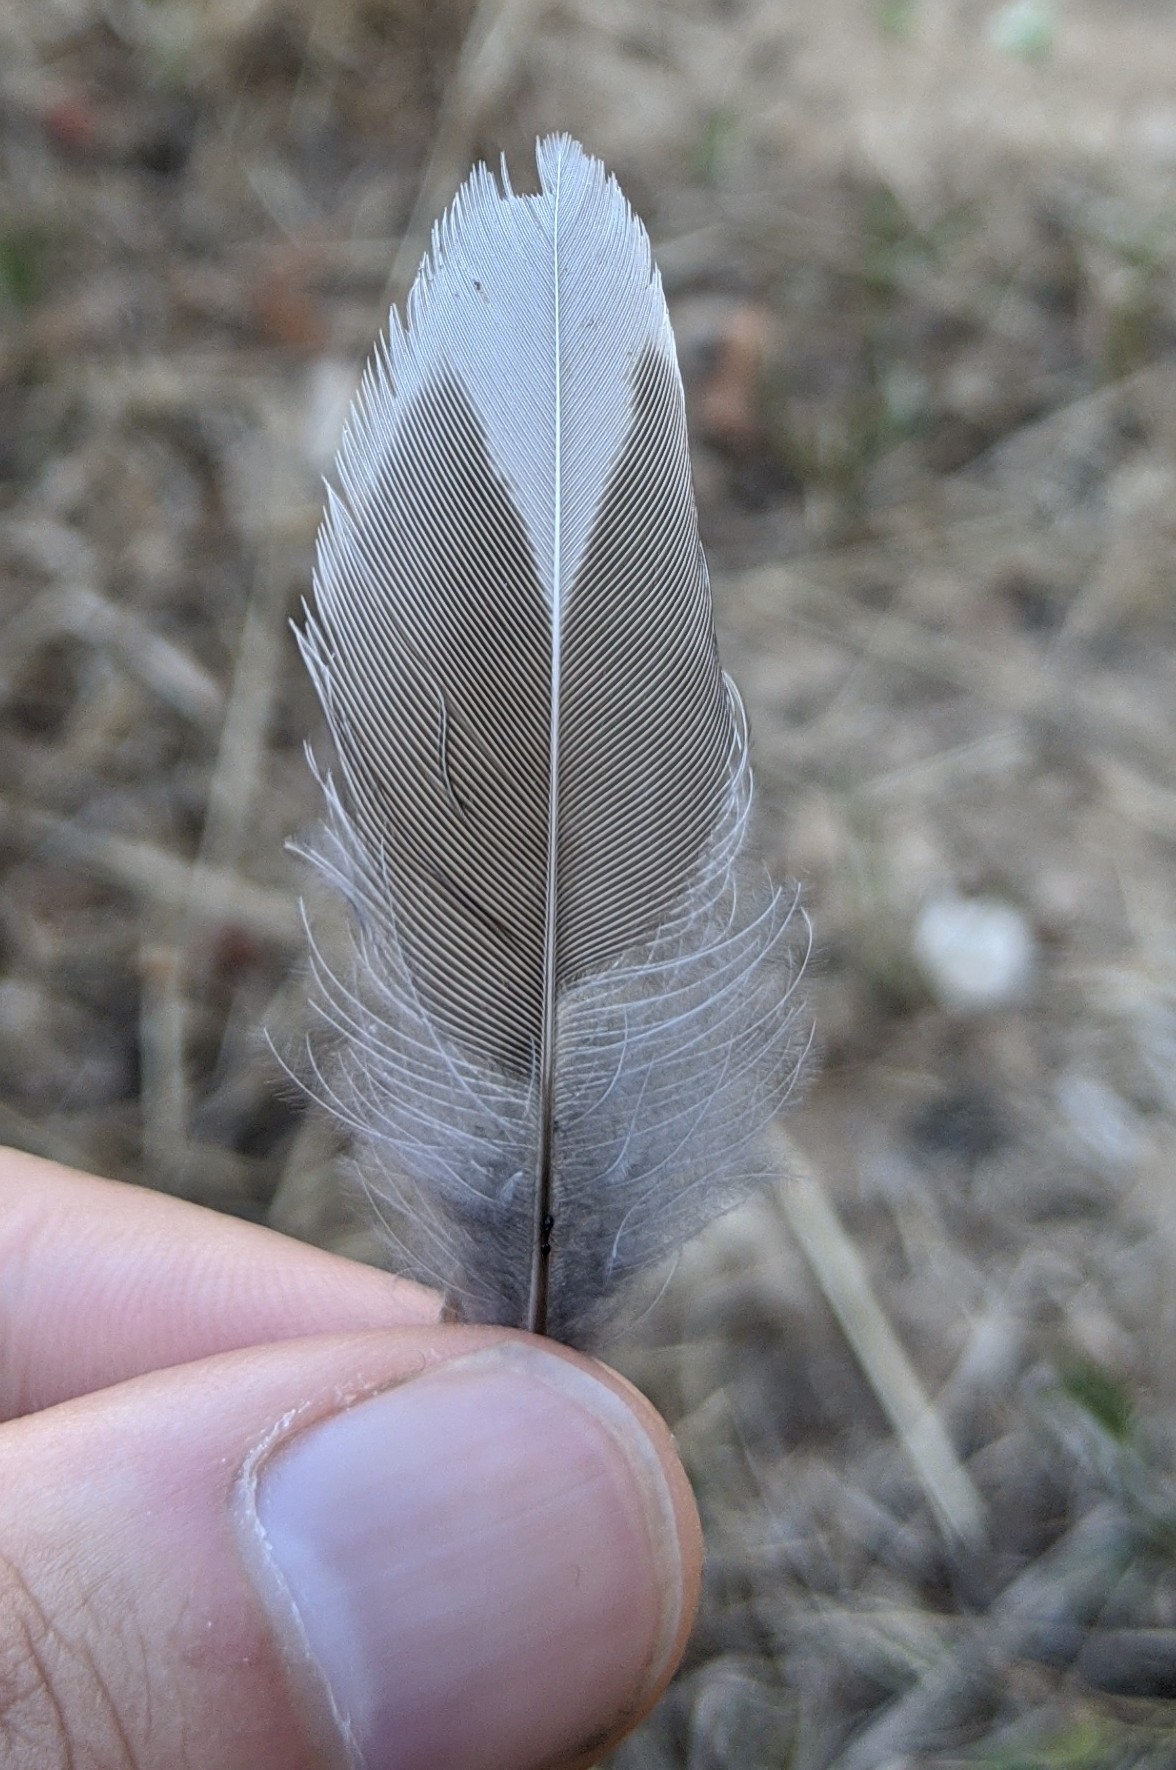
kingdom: Animalia
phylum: Chordata
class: Aves
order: Passeriformes
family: Turdidae
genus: Turdus
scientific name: Turdus migratorius
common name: American robin
